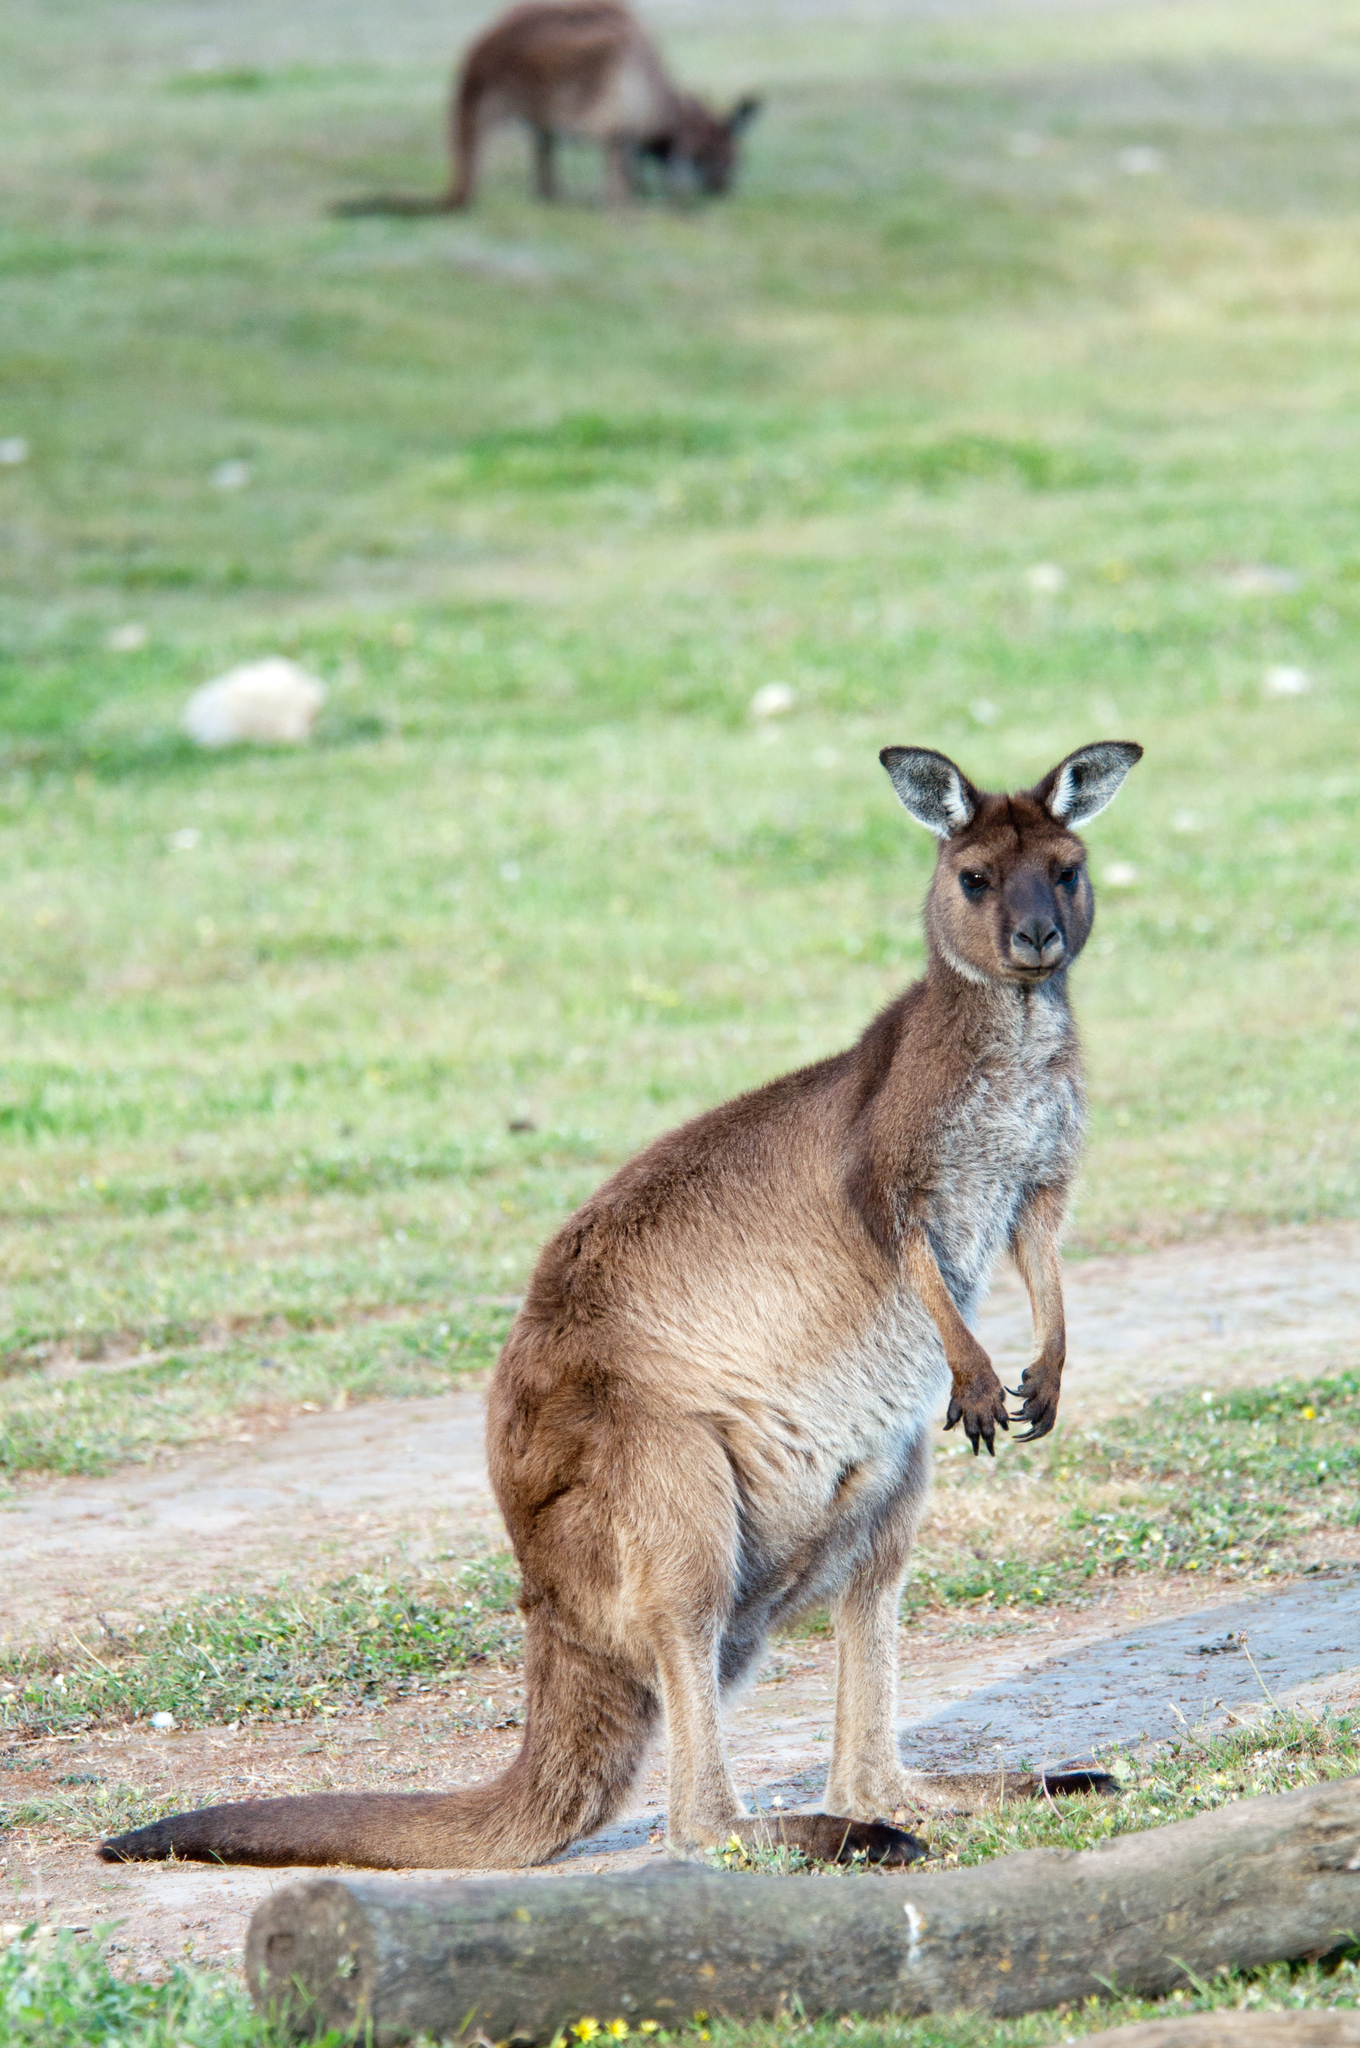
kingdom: Animalia
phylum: Chordata
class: Mammalia
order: Diprotodontia
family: Macropodidae
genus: Macropus
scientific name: Macropus fuliginosus
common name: Western grey kangaroo
